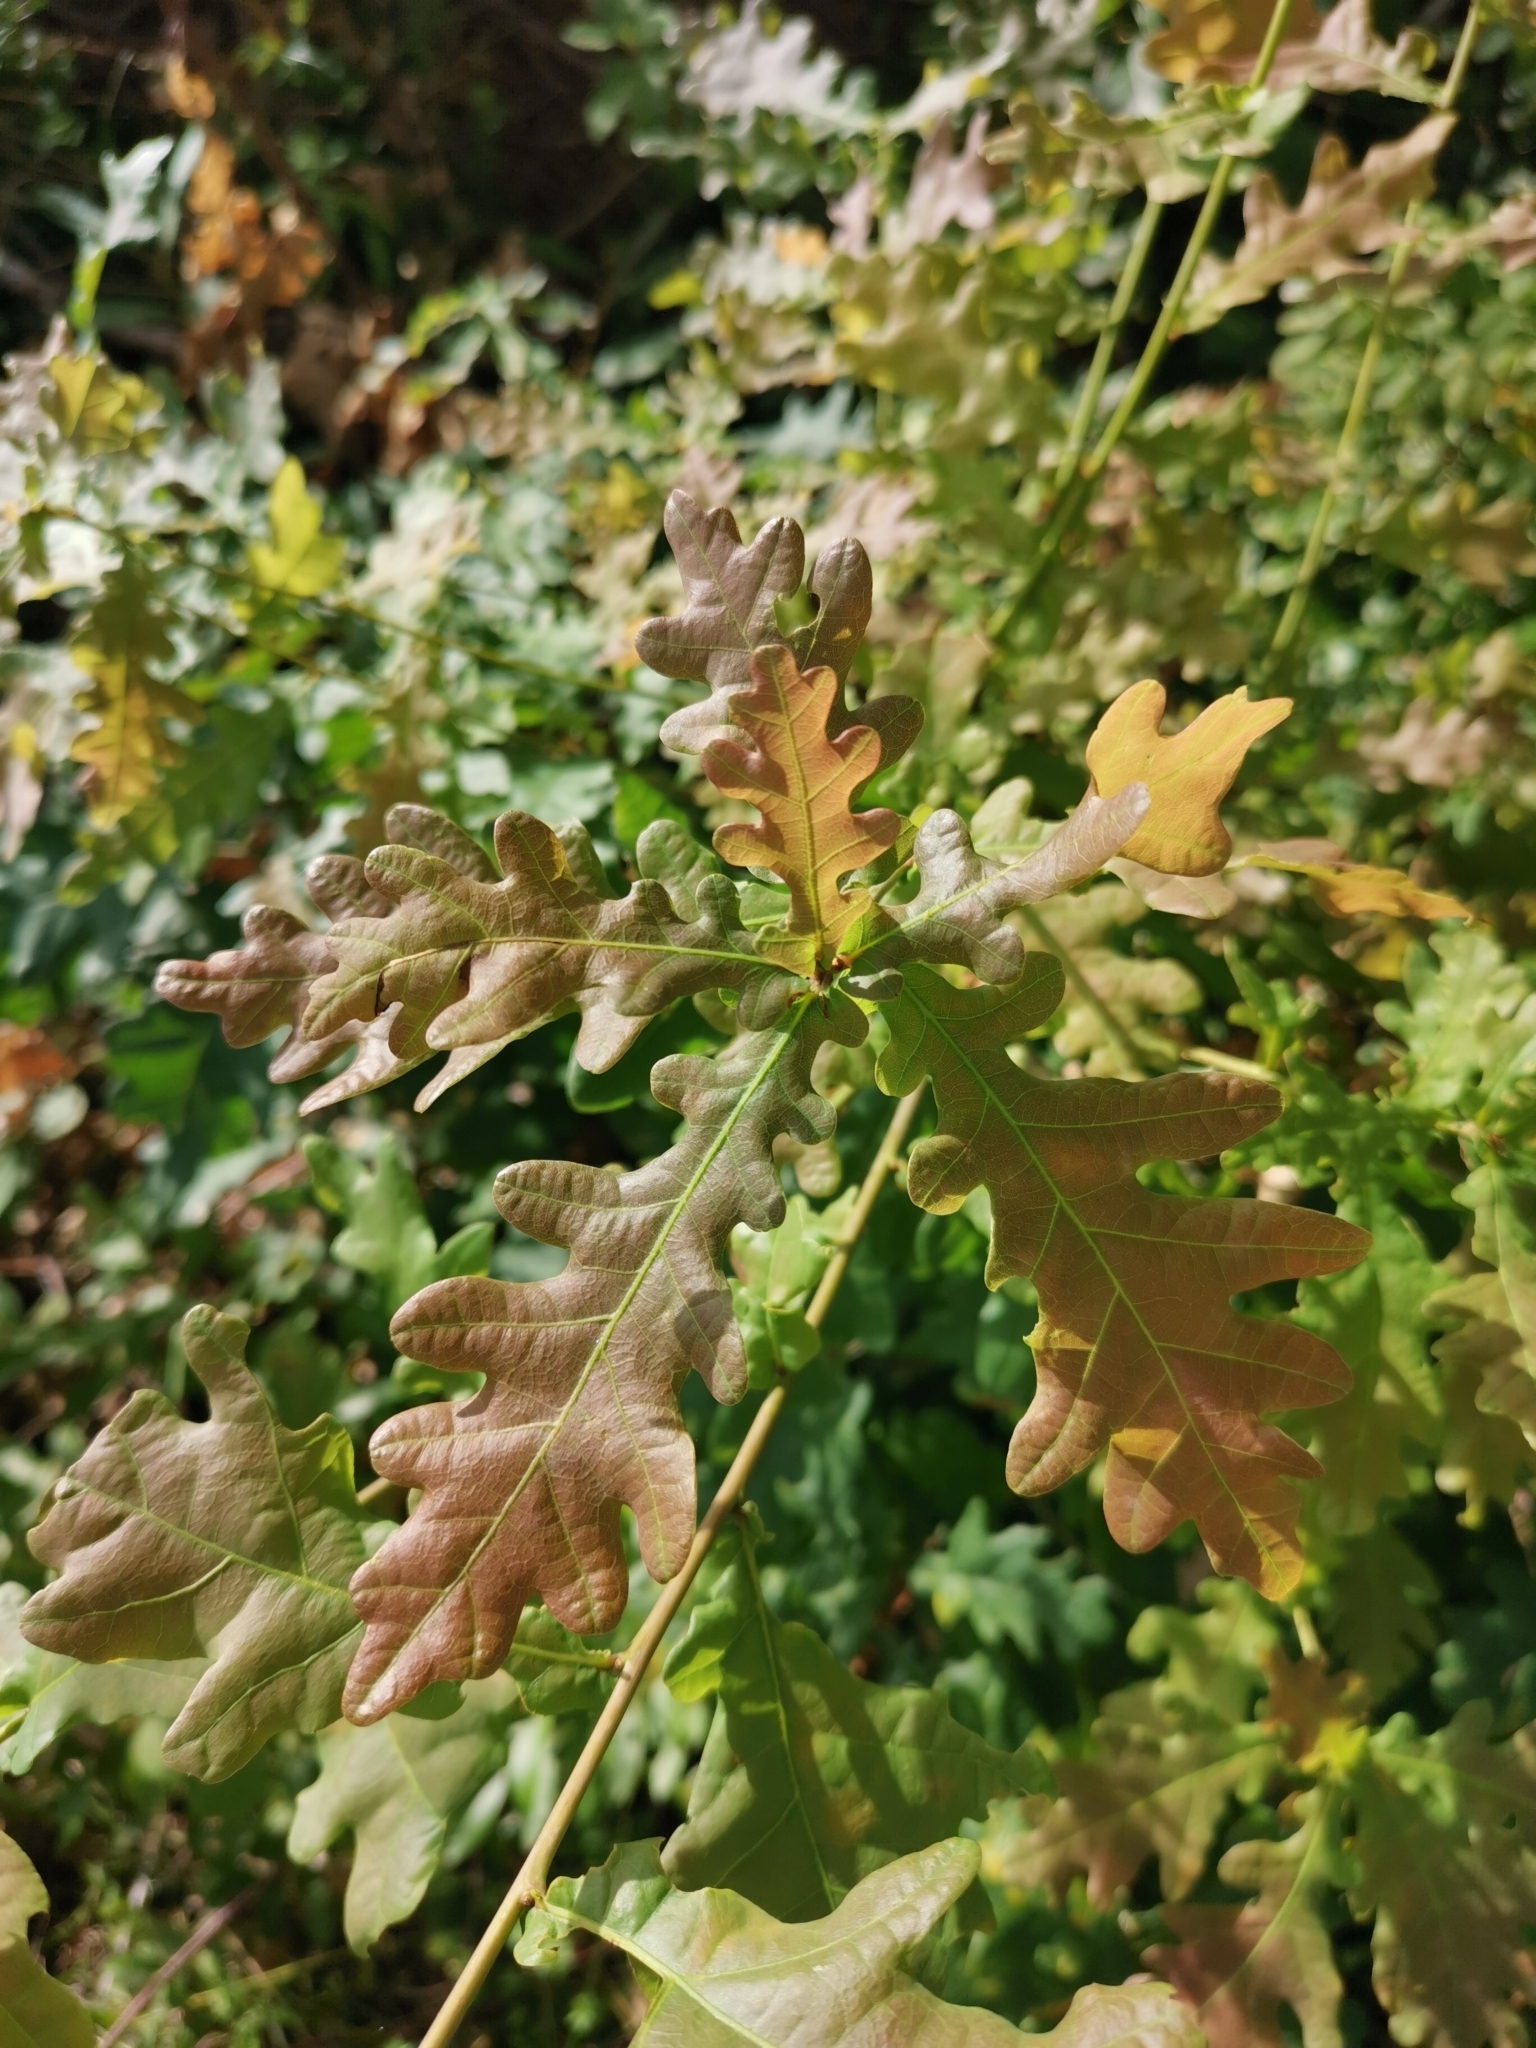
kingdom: Plantae
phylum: Tracheophyta
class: Magnoliopsida
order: Fagales
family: Fagaceae
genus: Quercus
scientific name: Quercus robur
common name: Pedunculate oak
